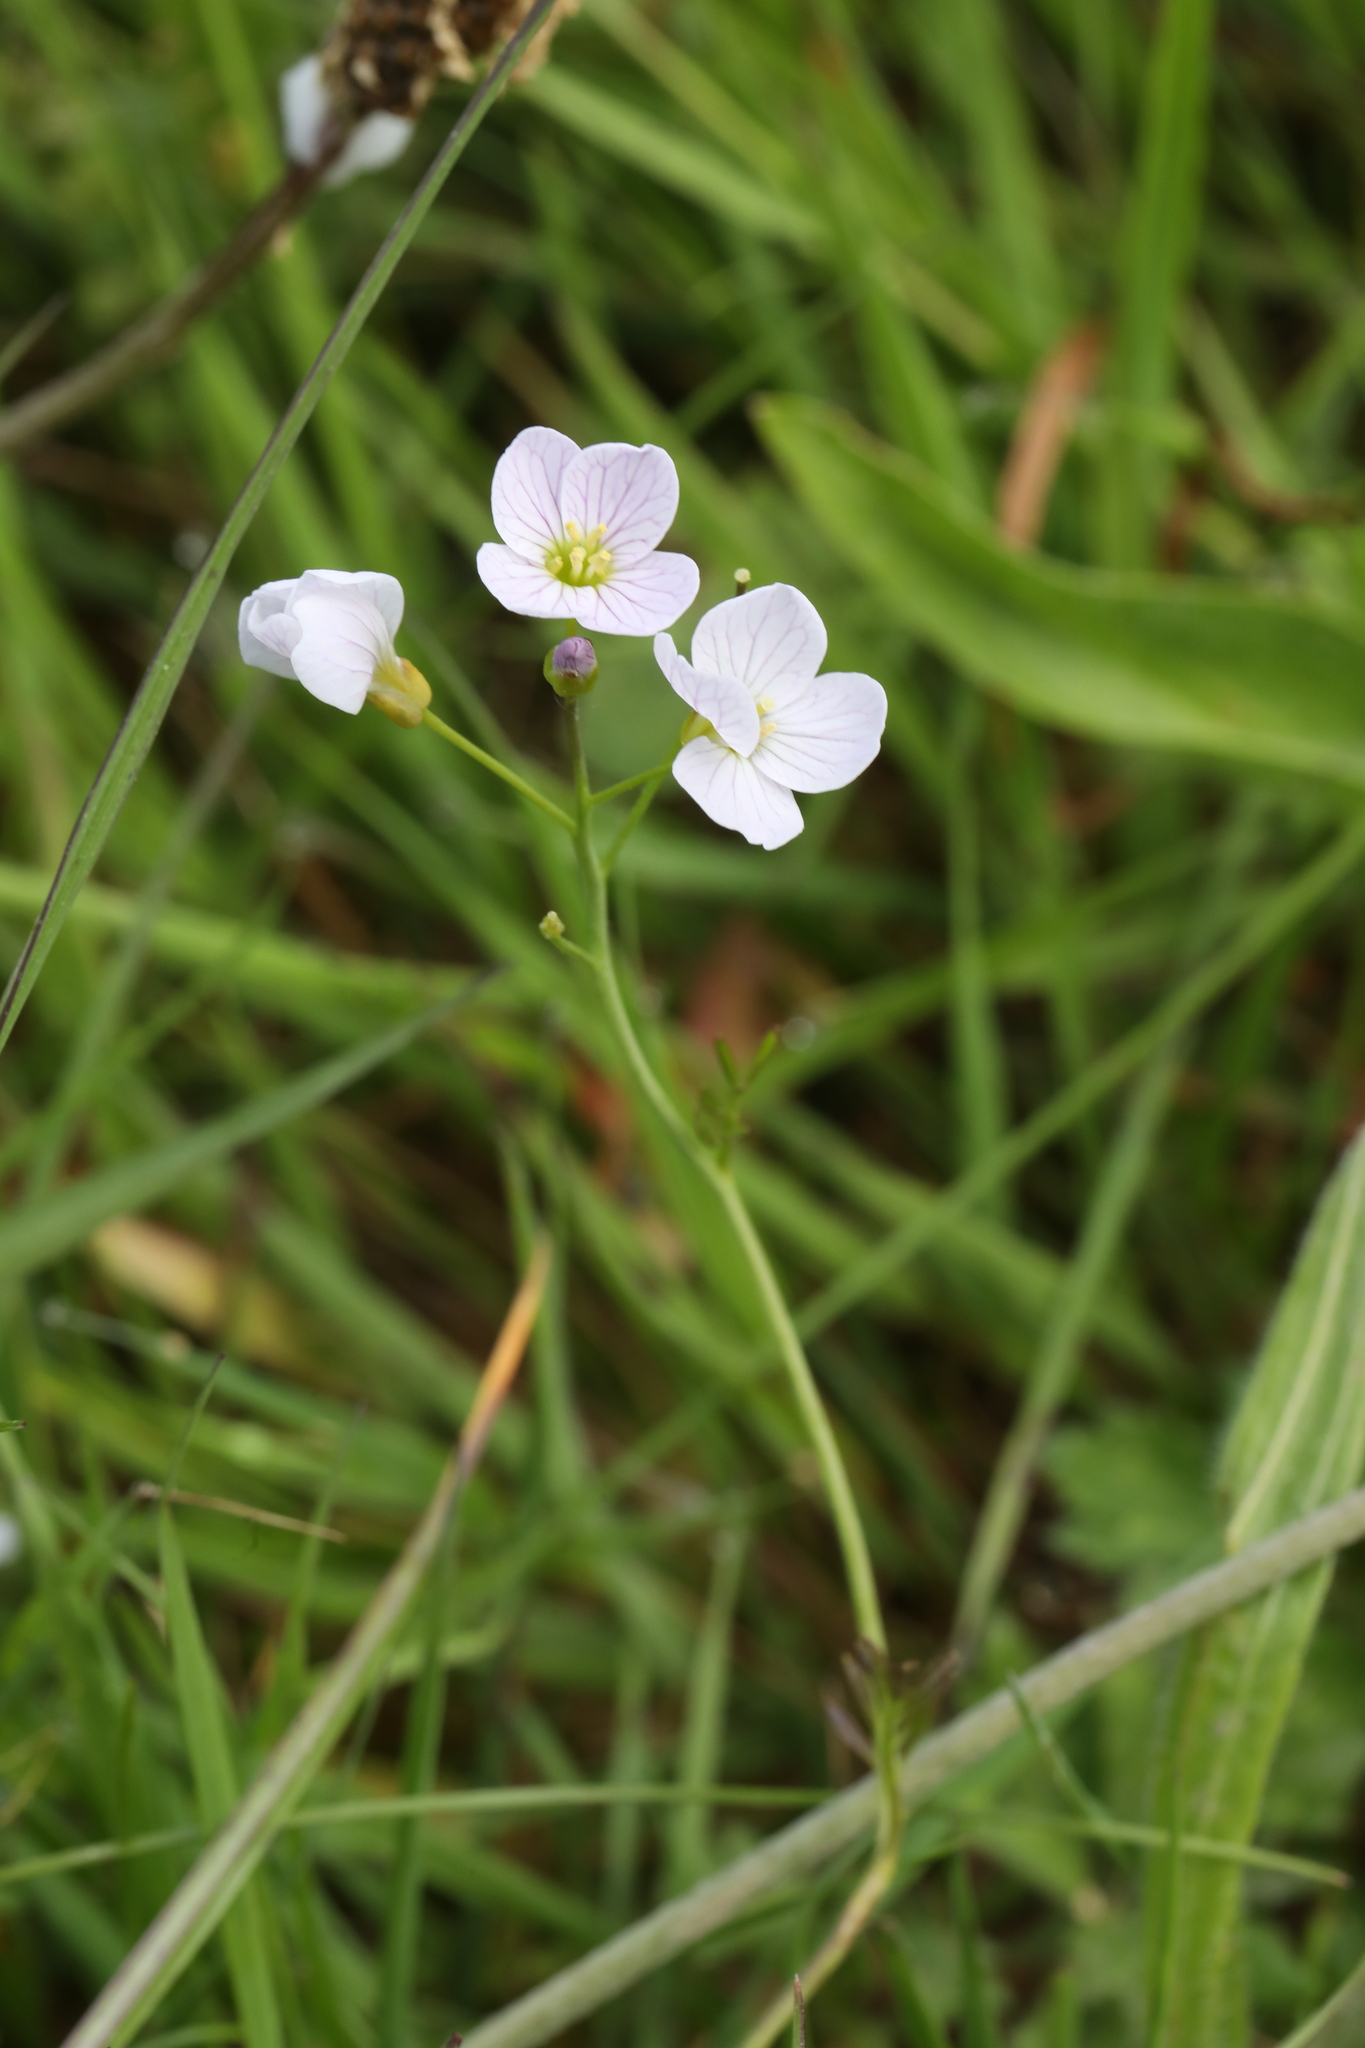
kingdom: Plantae
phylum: Tracheophyta
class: Magnoliopsida
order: Brassicales
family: Brassicaceae
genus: Cardamine
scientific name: Cardamine pratensis
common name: Cuckoo flower
